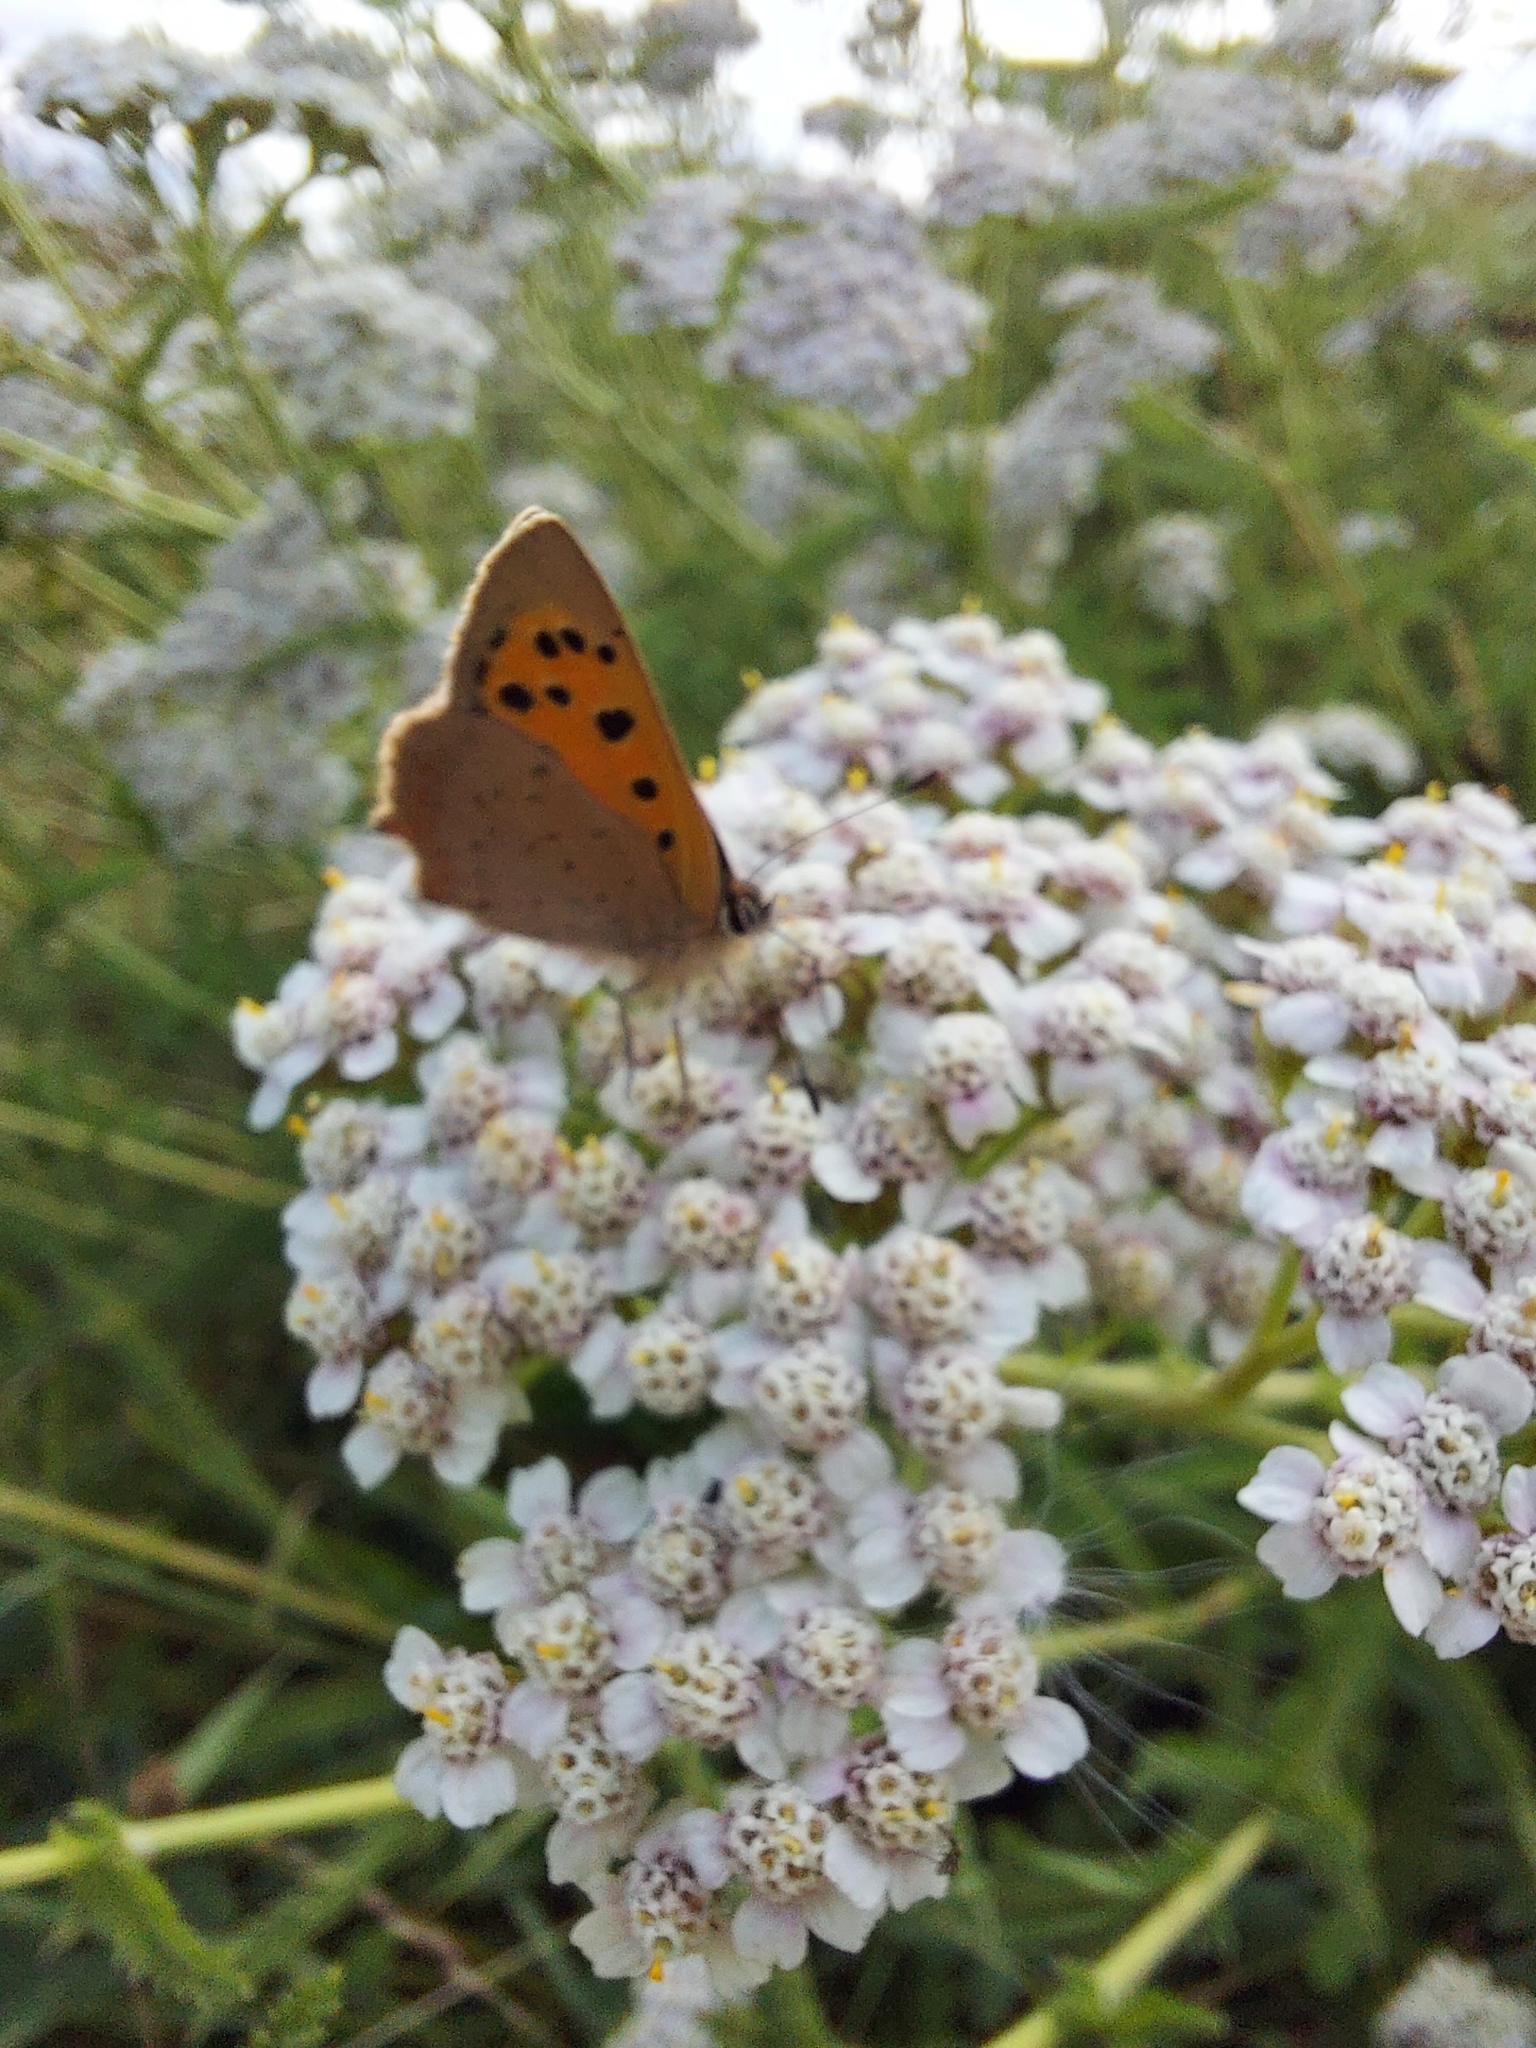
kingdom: Animalia
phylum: Arthropoda
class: Insecta
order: Lepidoptera
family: Lycaenidae
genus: Lycaena
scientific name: Lycaena phlaeas
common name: Small copper
